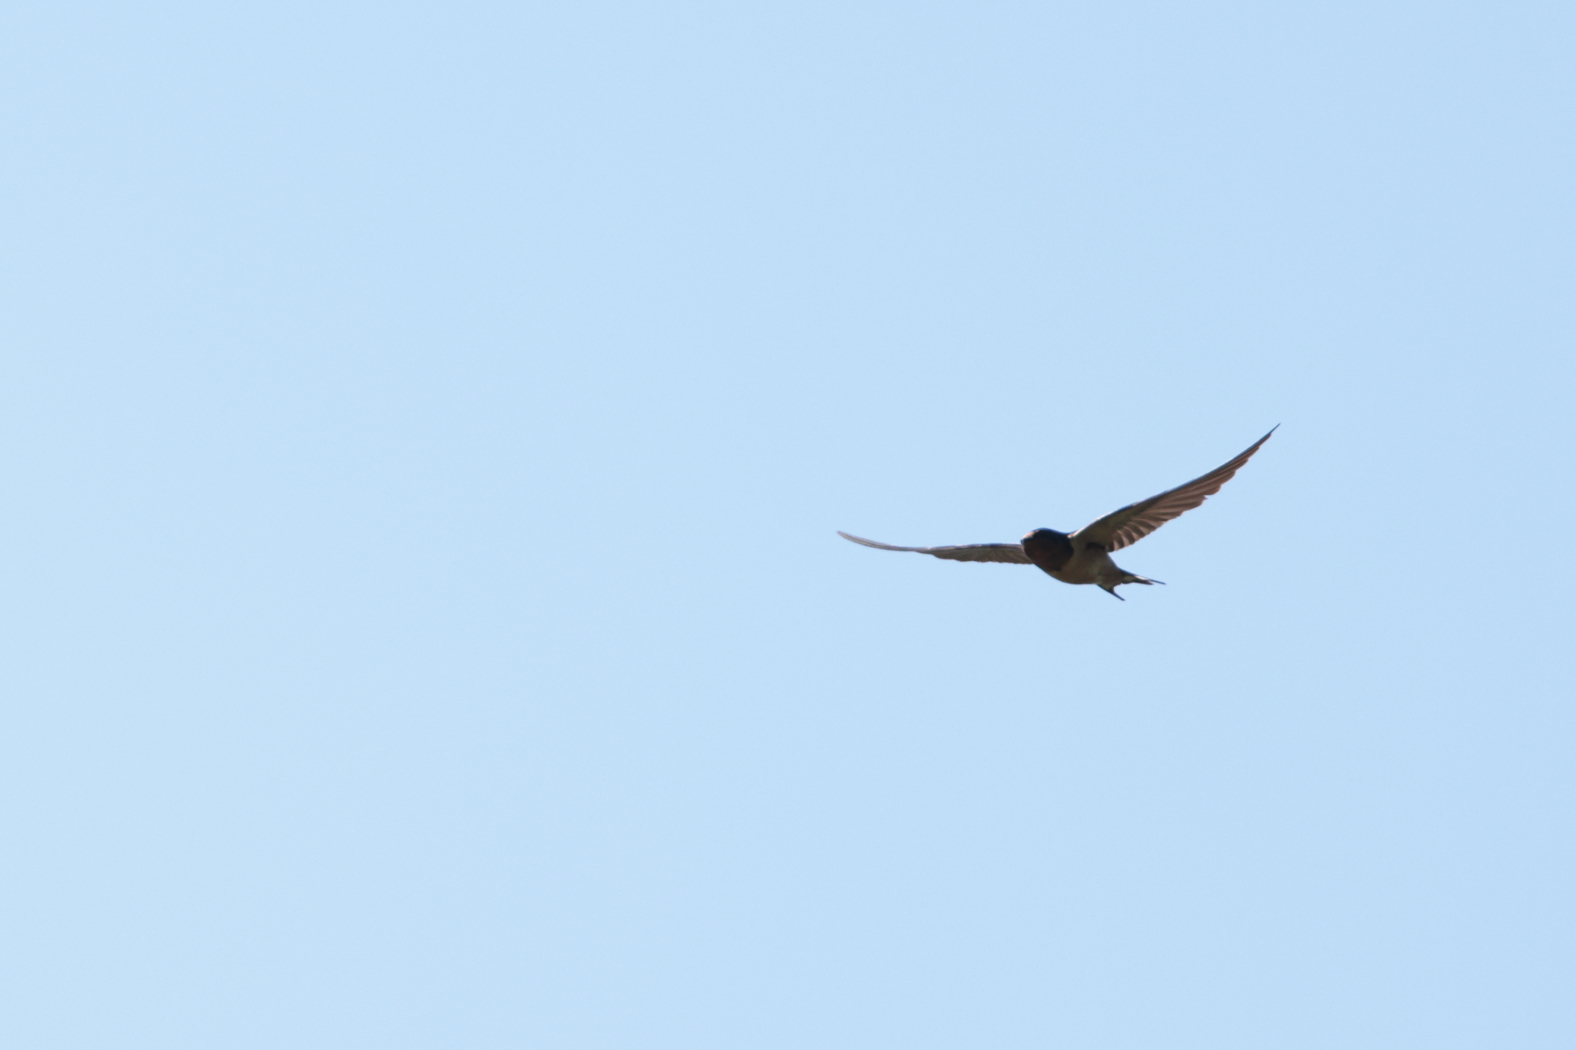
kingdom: Animalia
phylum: Chordata
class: Aves
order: Passeriformes
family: Hirundinidae
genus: Hirundo
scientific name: Hirundo rustica
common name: Barn swallow
